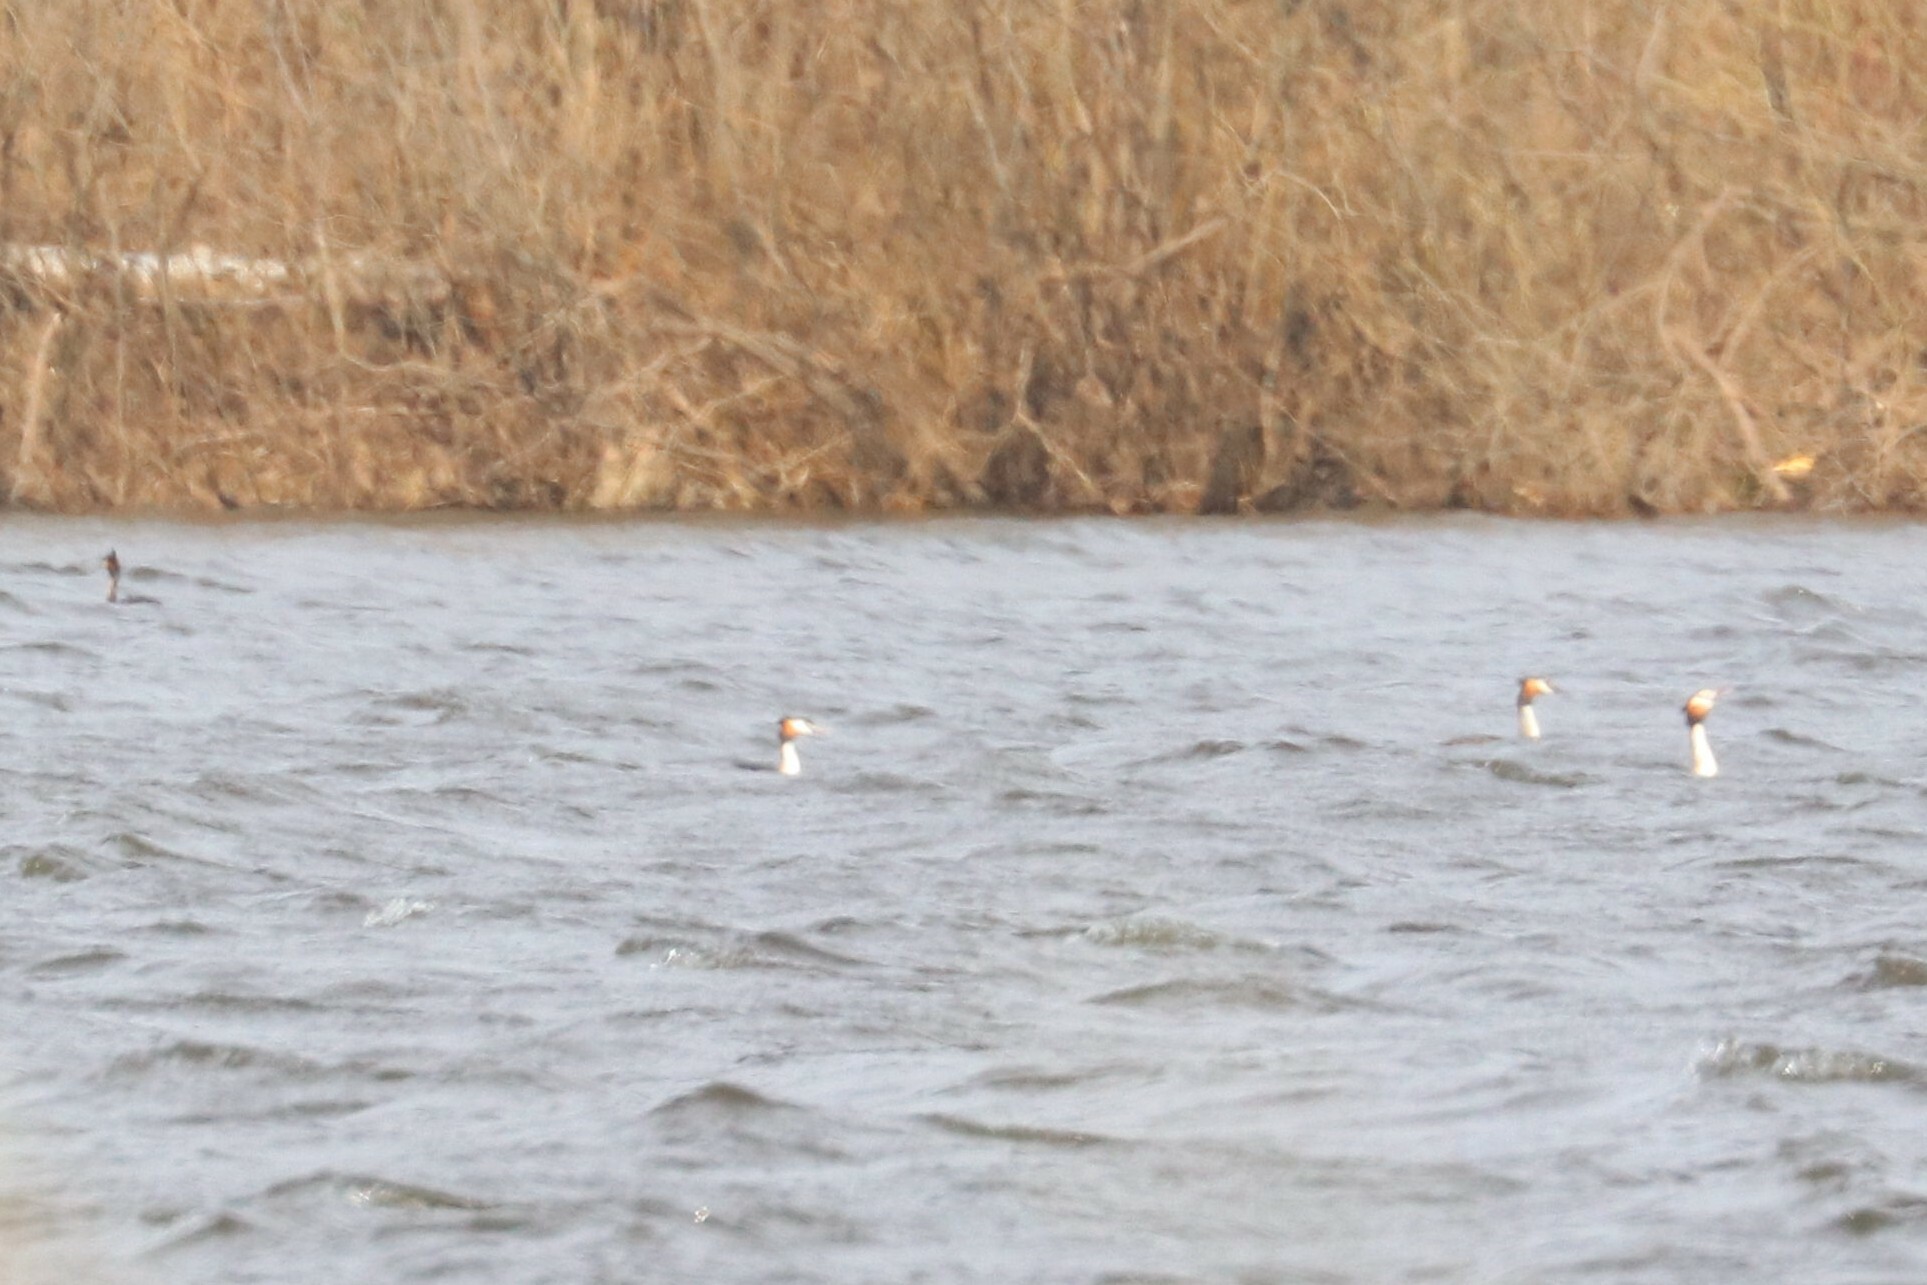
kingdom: Animalia
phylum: Chordata
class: Aves
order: Podicipediformes
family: Podicipedidae
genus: Podiceps
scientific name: Podiceps cristatus
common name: Great crested grebe
